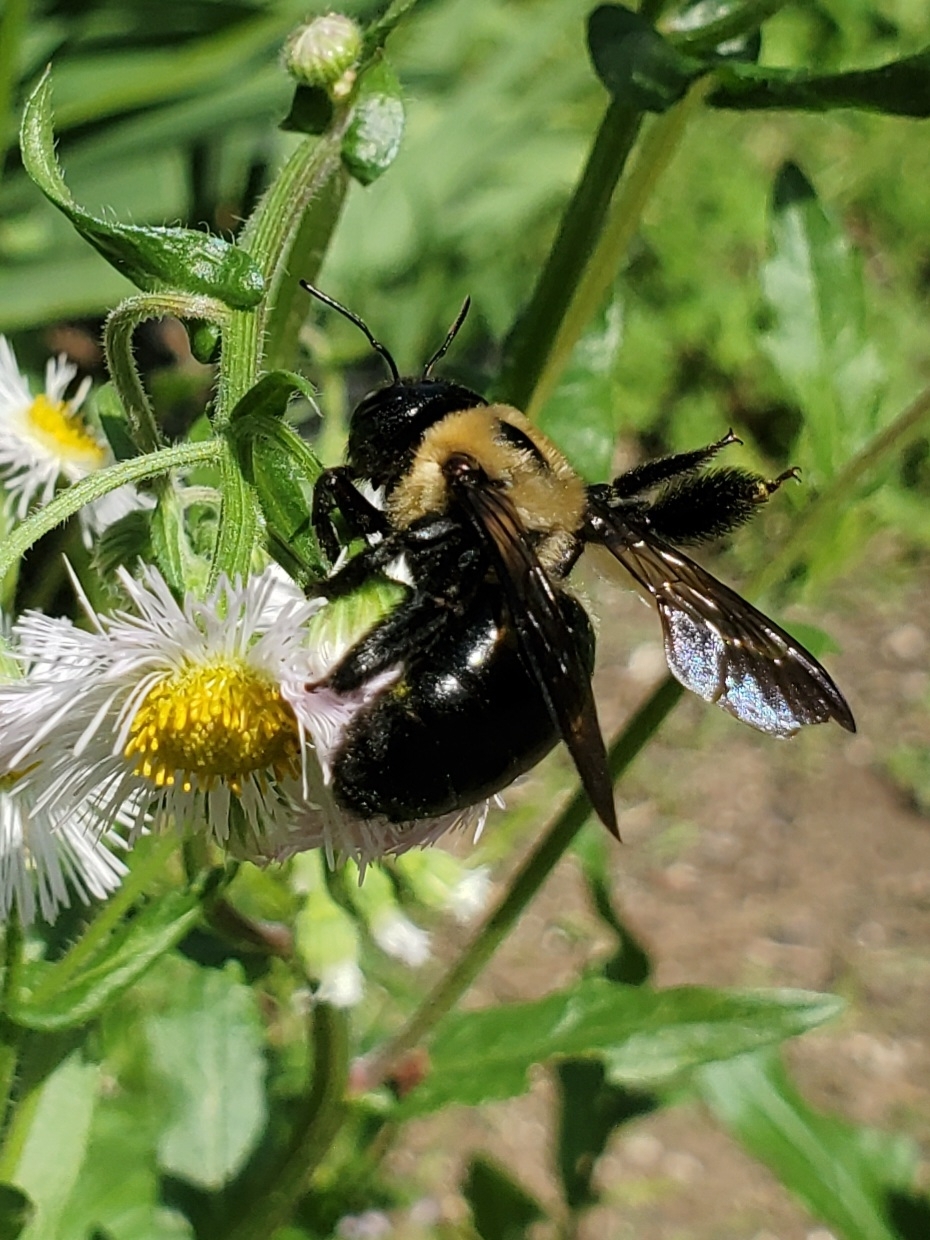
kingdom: Animalia
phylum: Arthropoda
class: Insecta
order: Hymenoptera
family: Apidae
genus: Xylocopa
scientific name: Xylocopa virginica
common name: Carpenter bee
